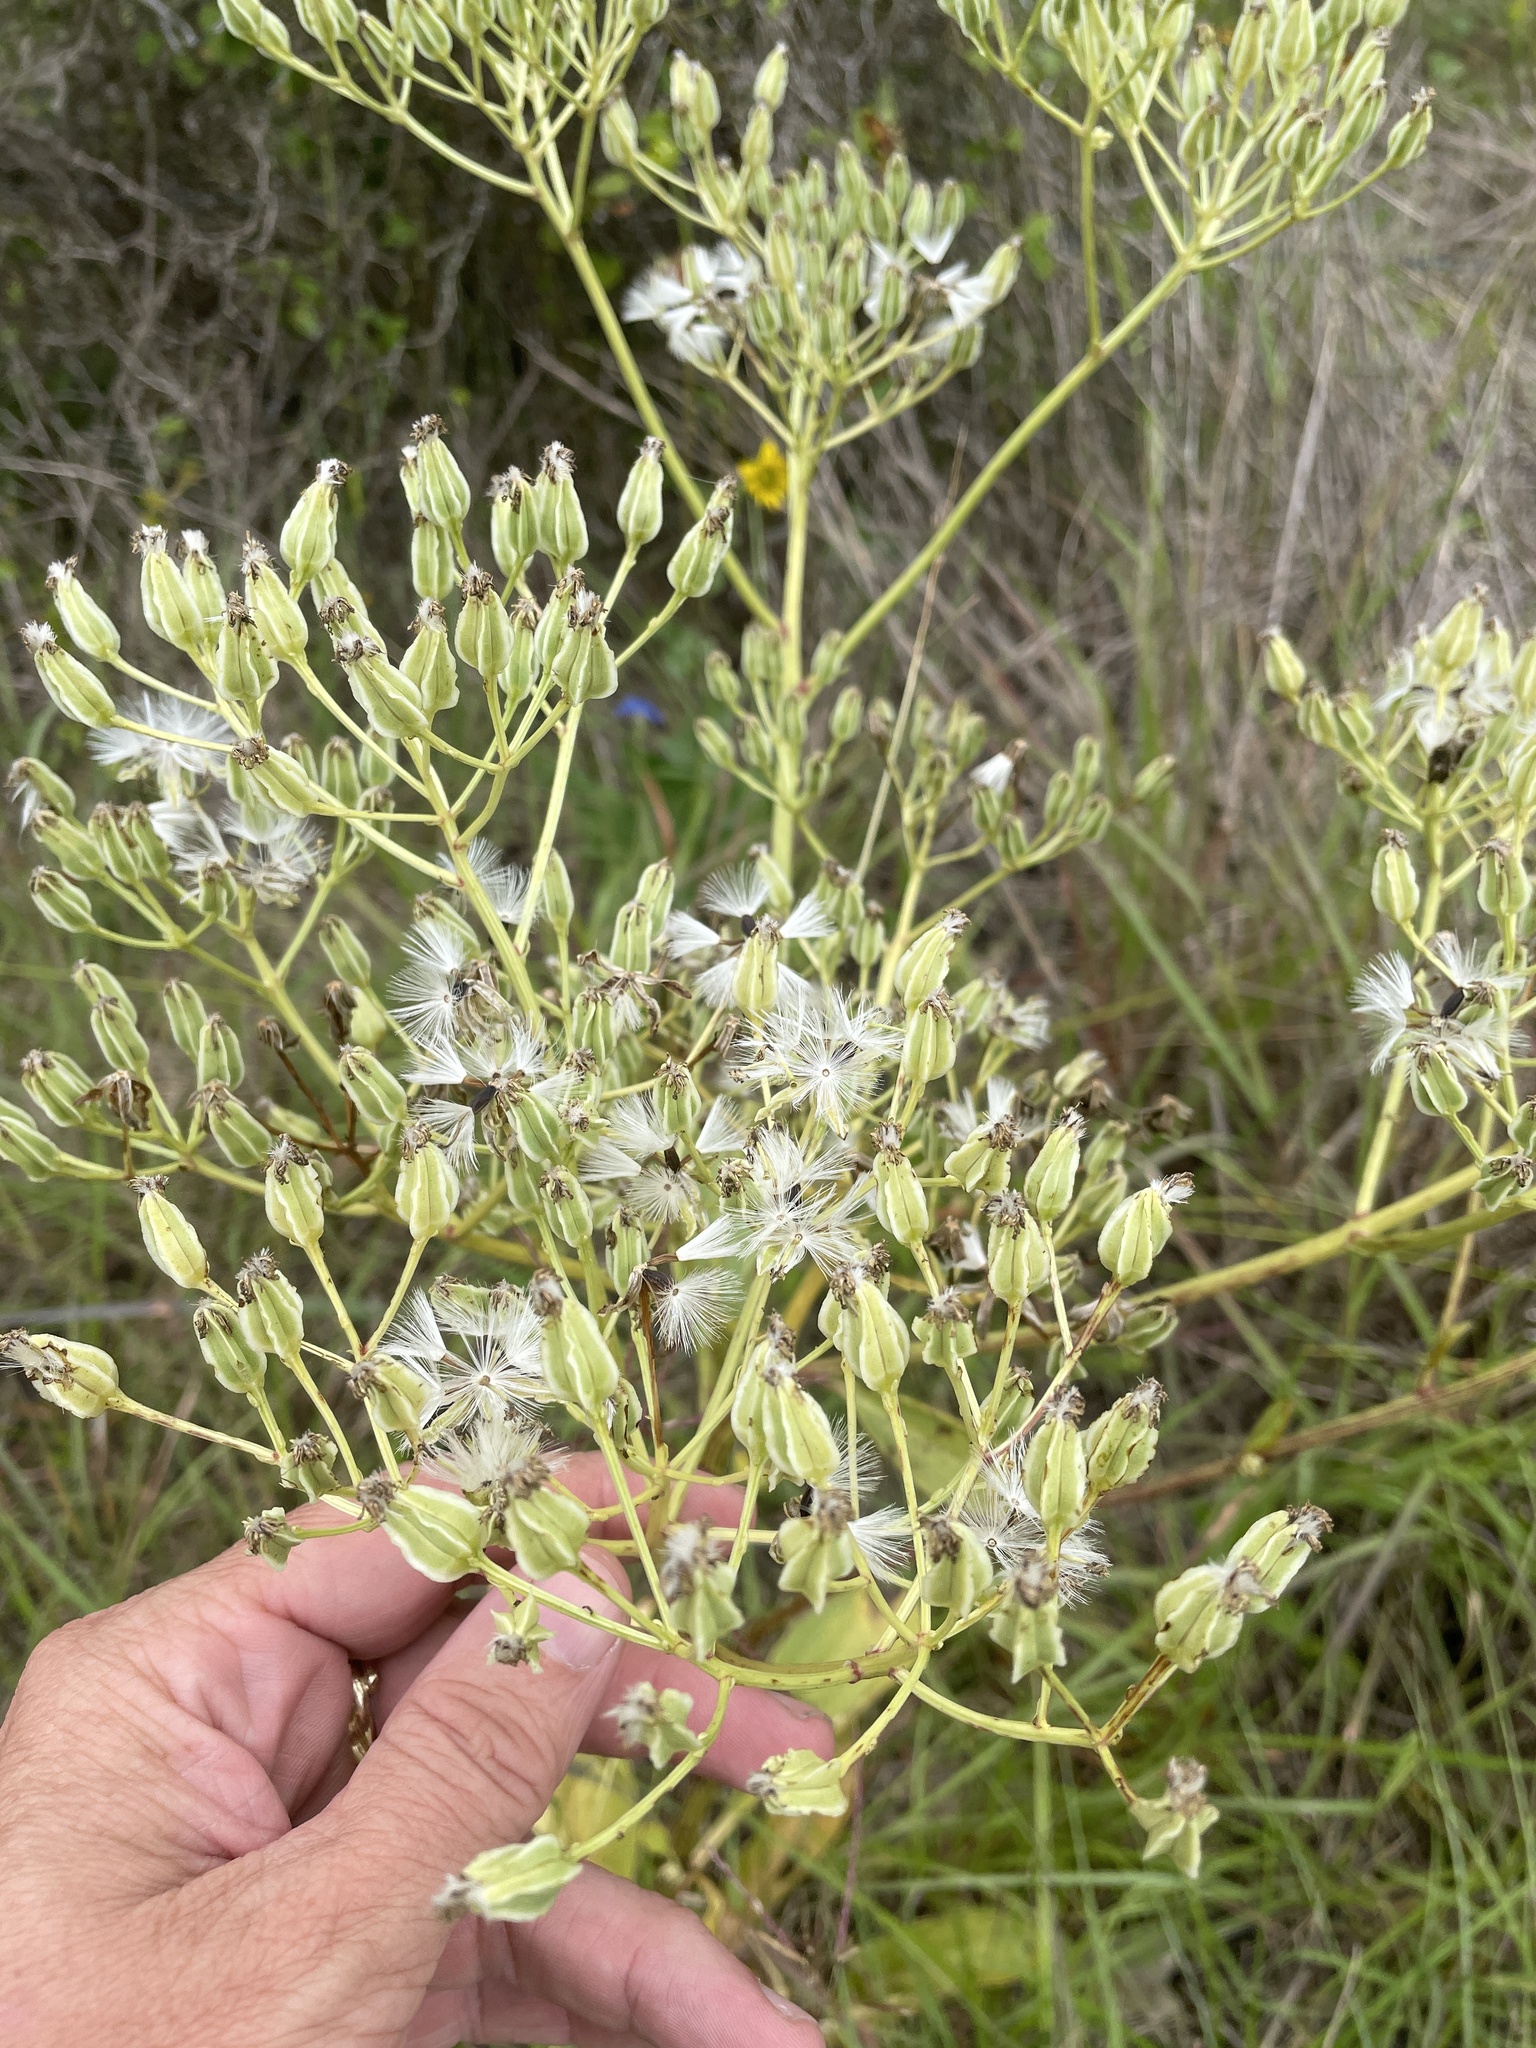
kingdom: Plantae
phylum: Tracheophyta
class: Magnoliopsida
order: Asterales
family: Asteraceae
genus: Arnoglossum
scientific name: Arnoglossum plantagineum
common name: Groove-stemmed indian-plantain
